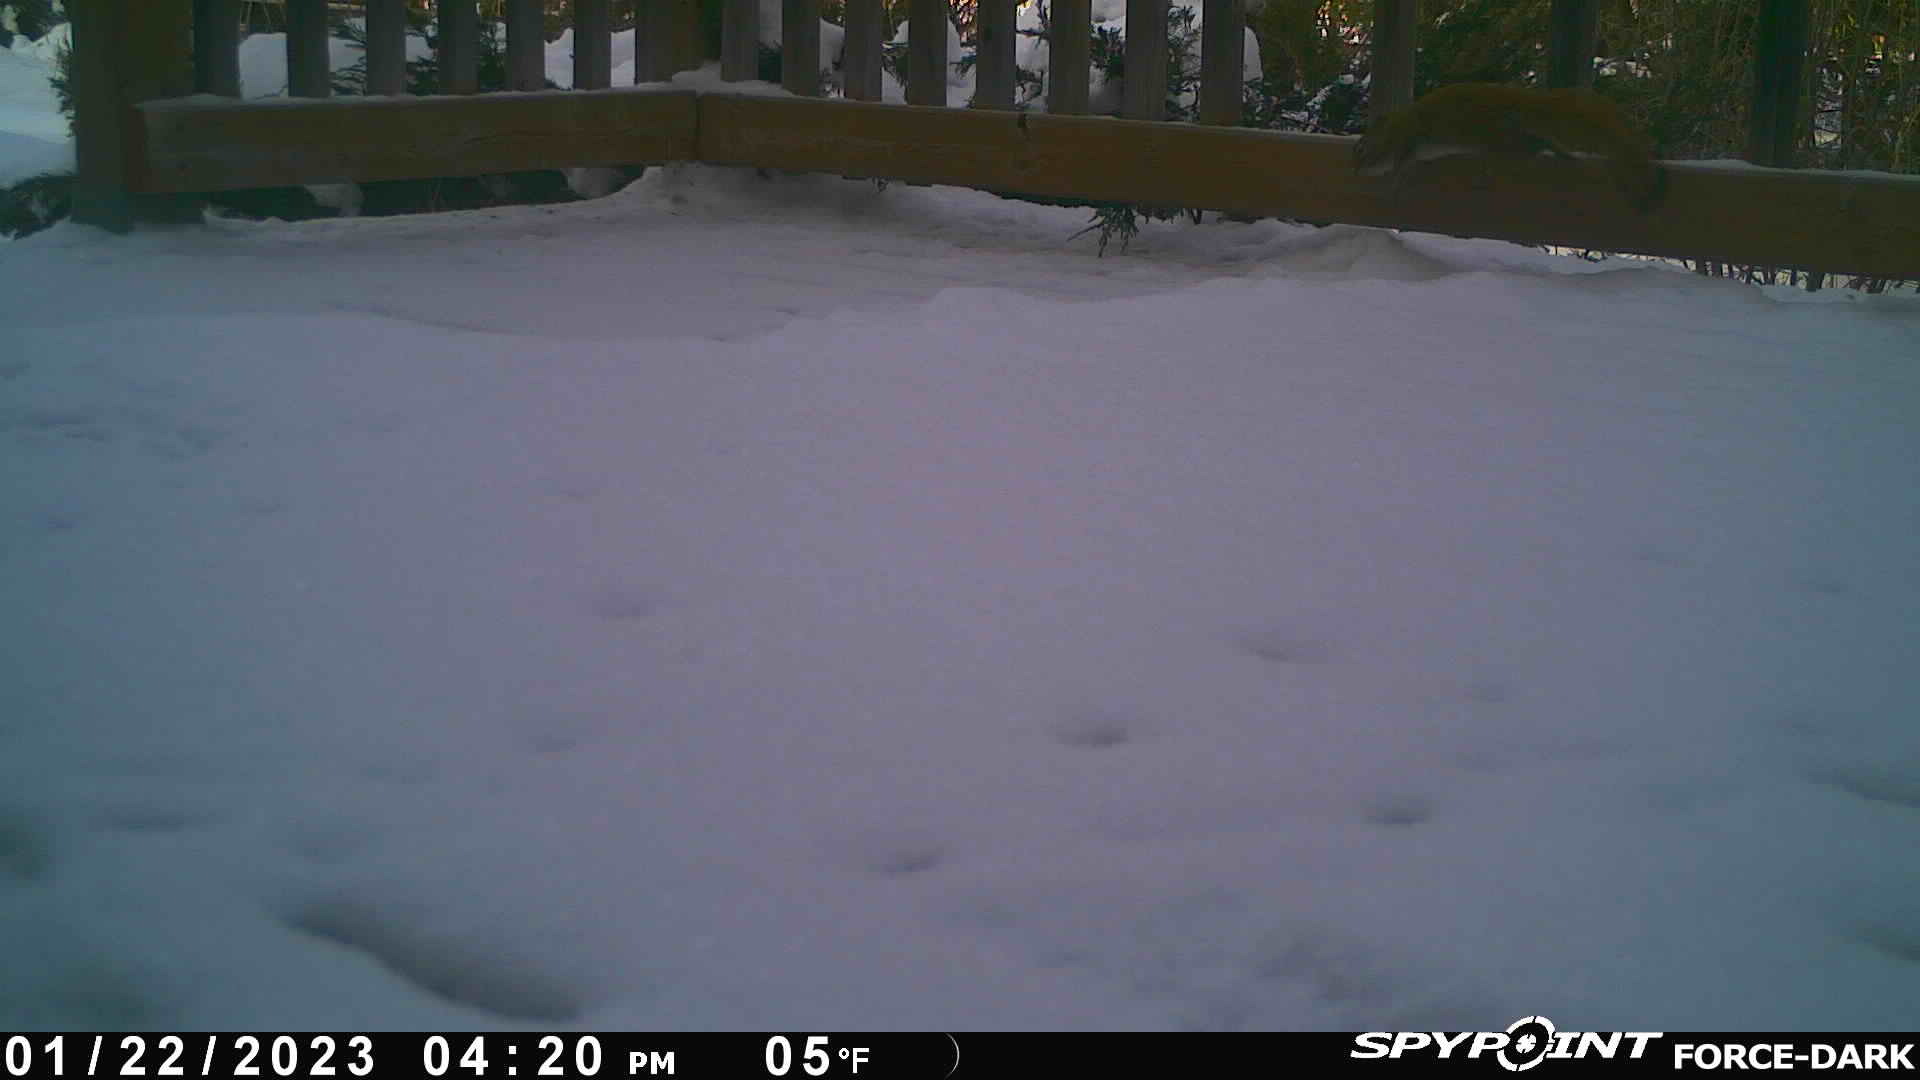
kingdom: Animalia
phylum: Chordata
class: Mammalia
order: Rodentia
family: Sciuridae
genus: Tamiasciurus
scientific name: Tamiasciurus hudsonicus
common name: Red squirrel
